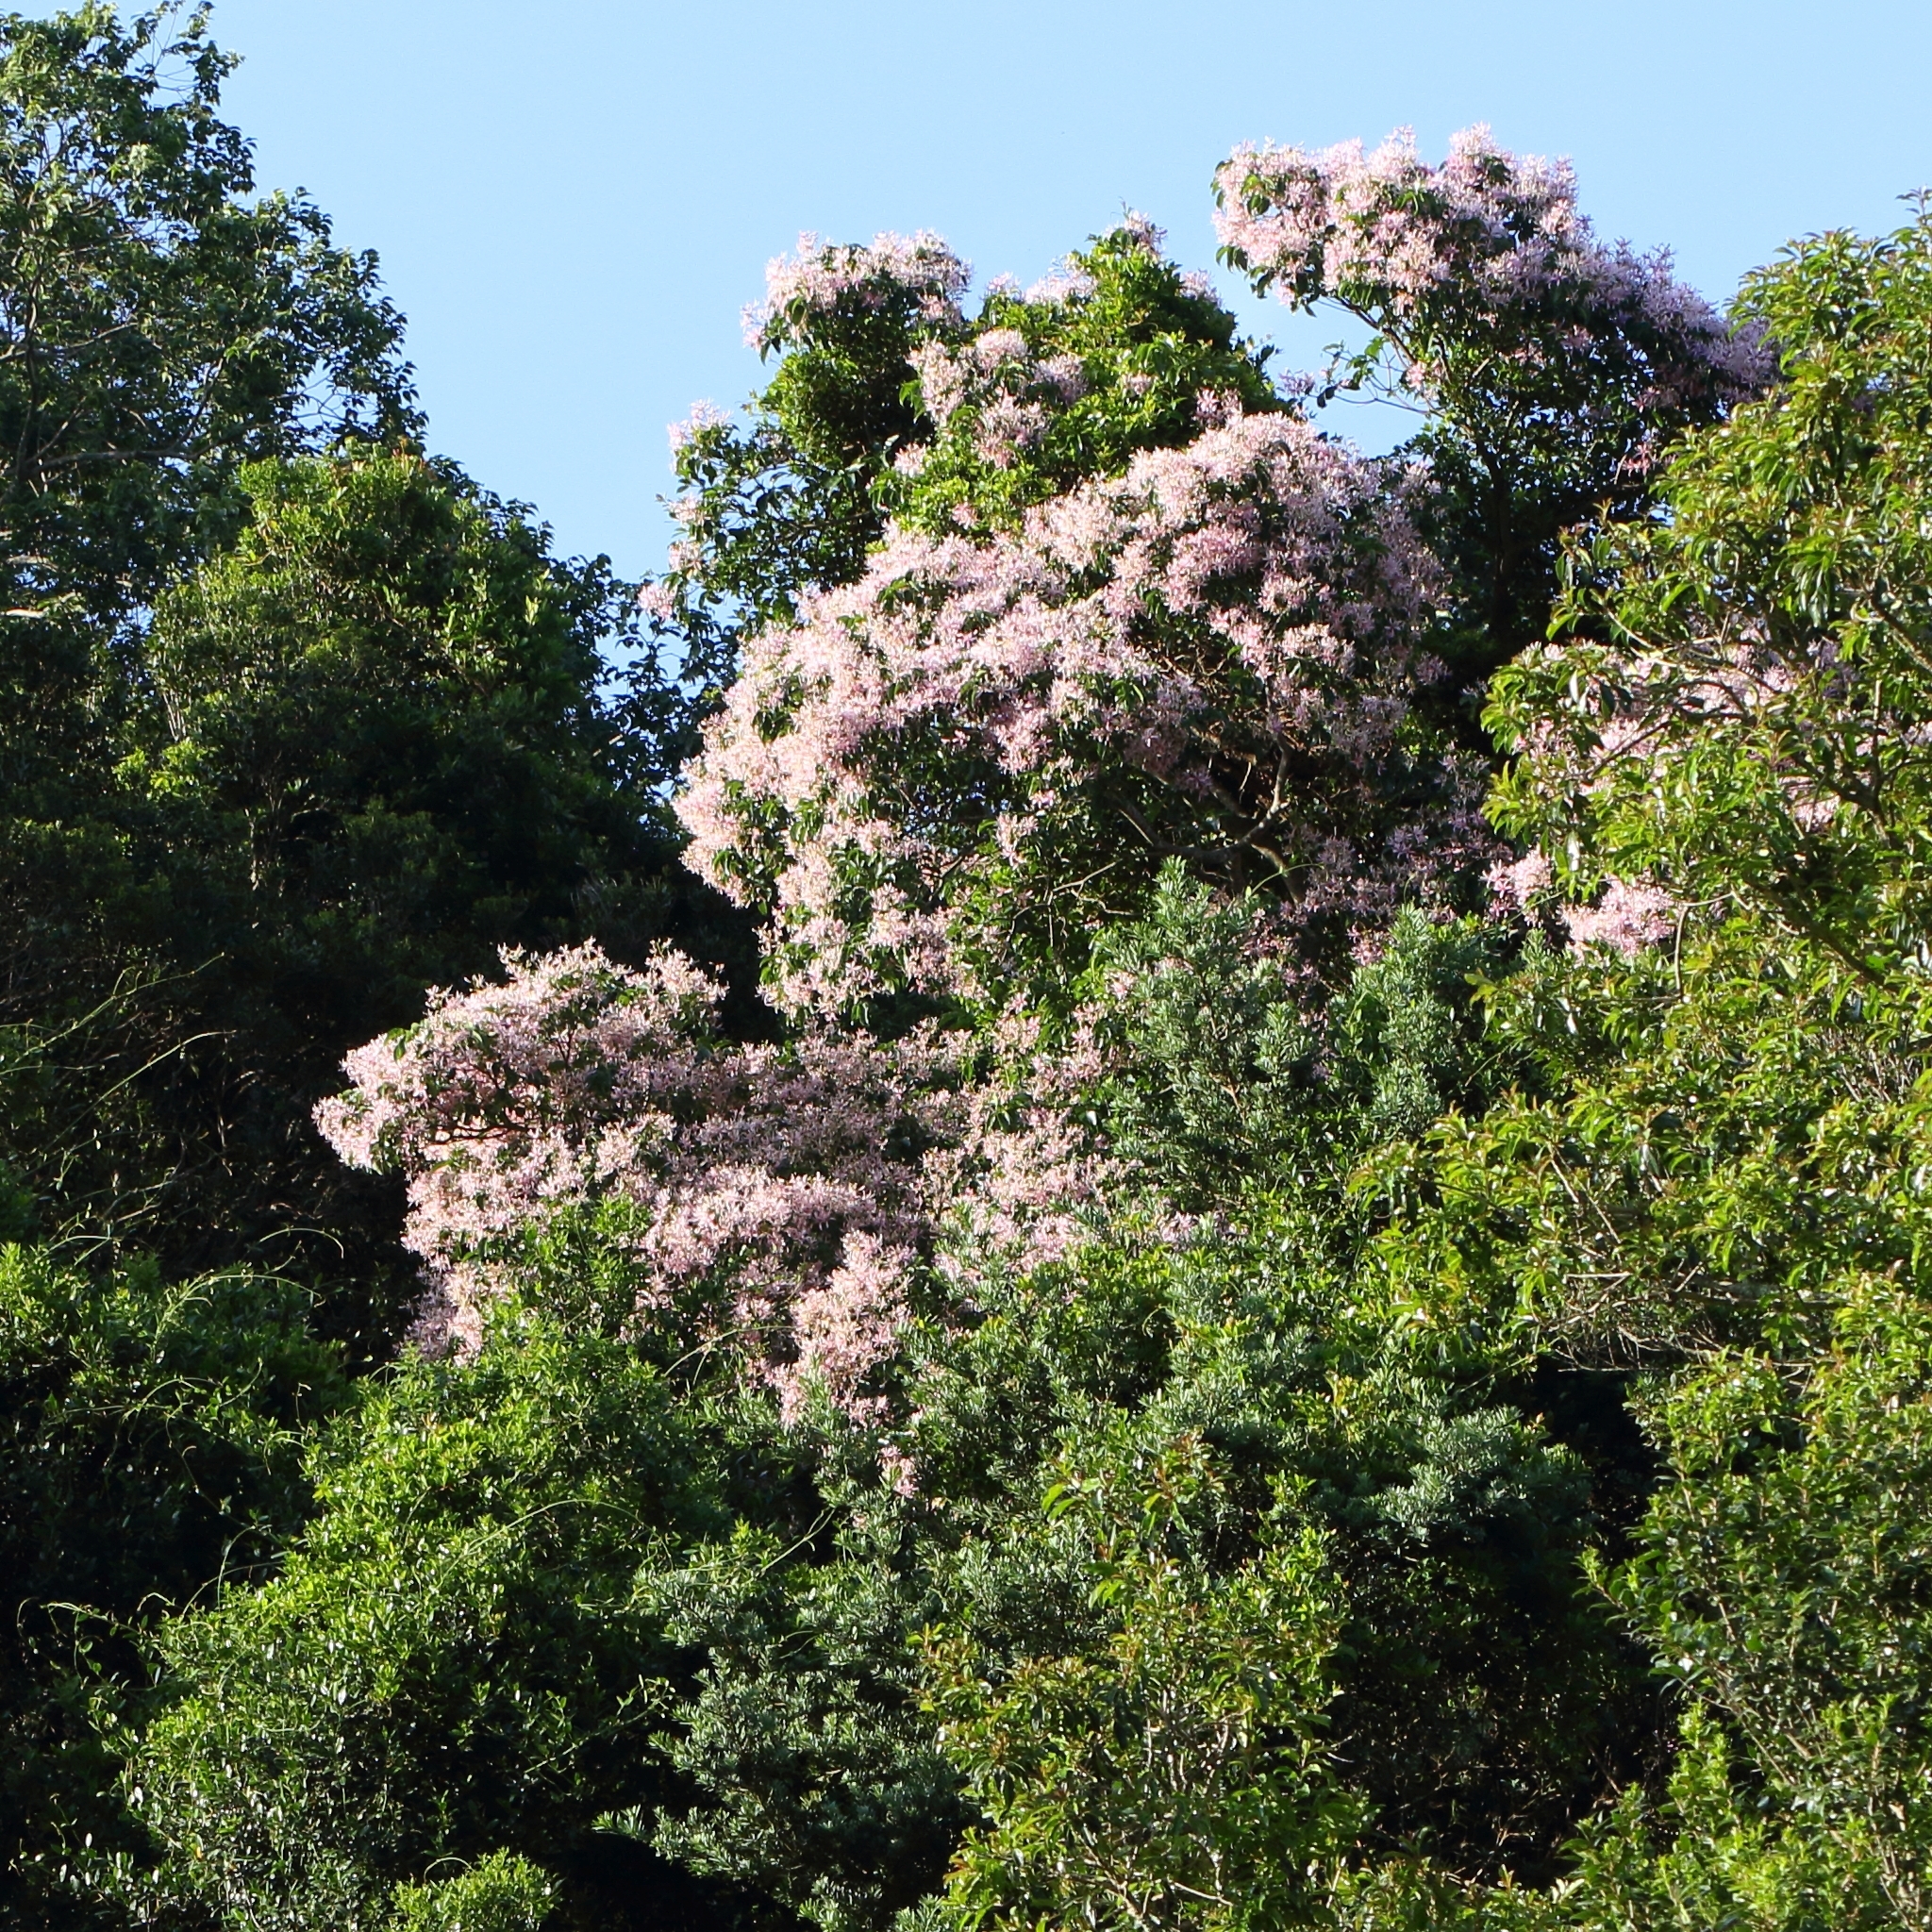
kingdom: Plantae
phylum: Tracheophyta
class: Magnoliopsida
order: Sapindales
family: Rutaceae
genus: Calodendrum
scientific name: Calodendrum capense
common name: Cape chestnut
